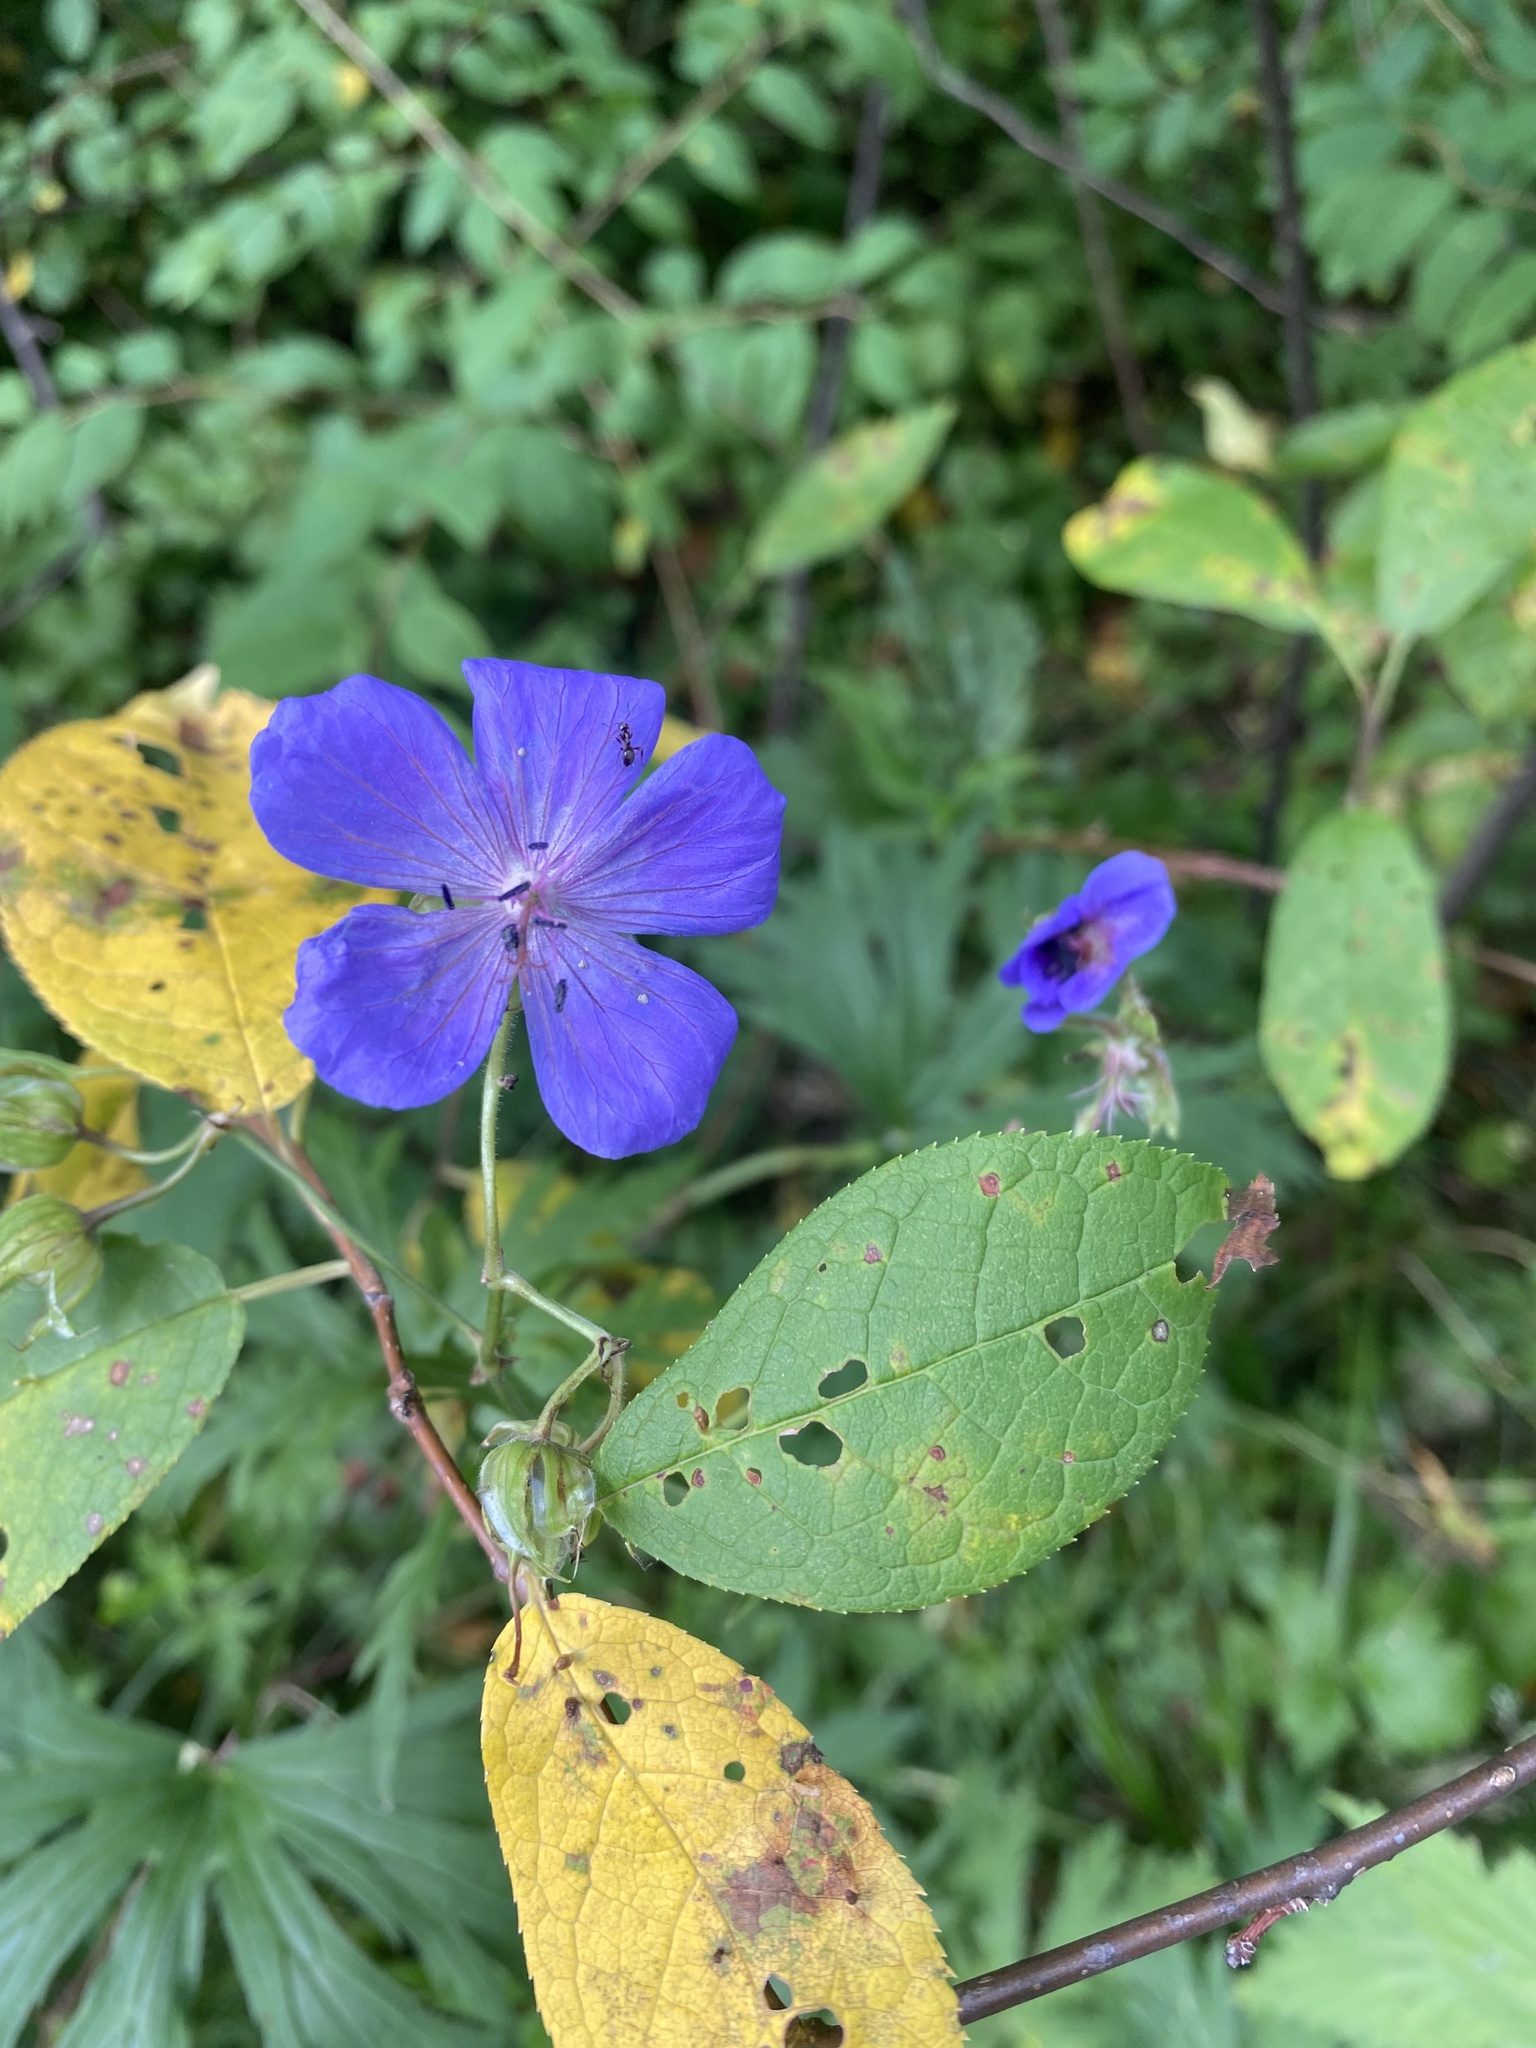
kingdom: Plantae
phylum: Tracheophyta
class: Magnoliopsida
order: Geraniales
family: Geraniaceae
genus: Geranium
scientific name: Geranium pratense
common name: Meadow crane's-bill
